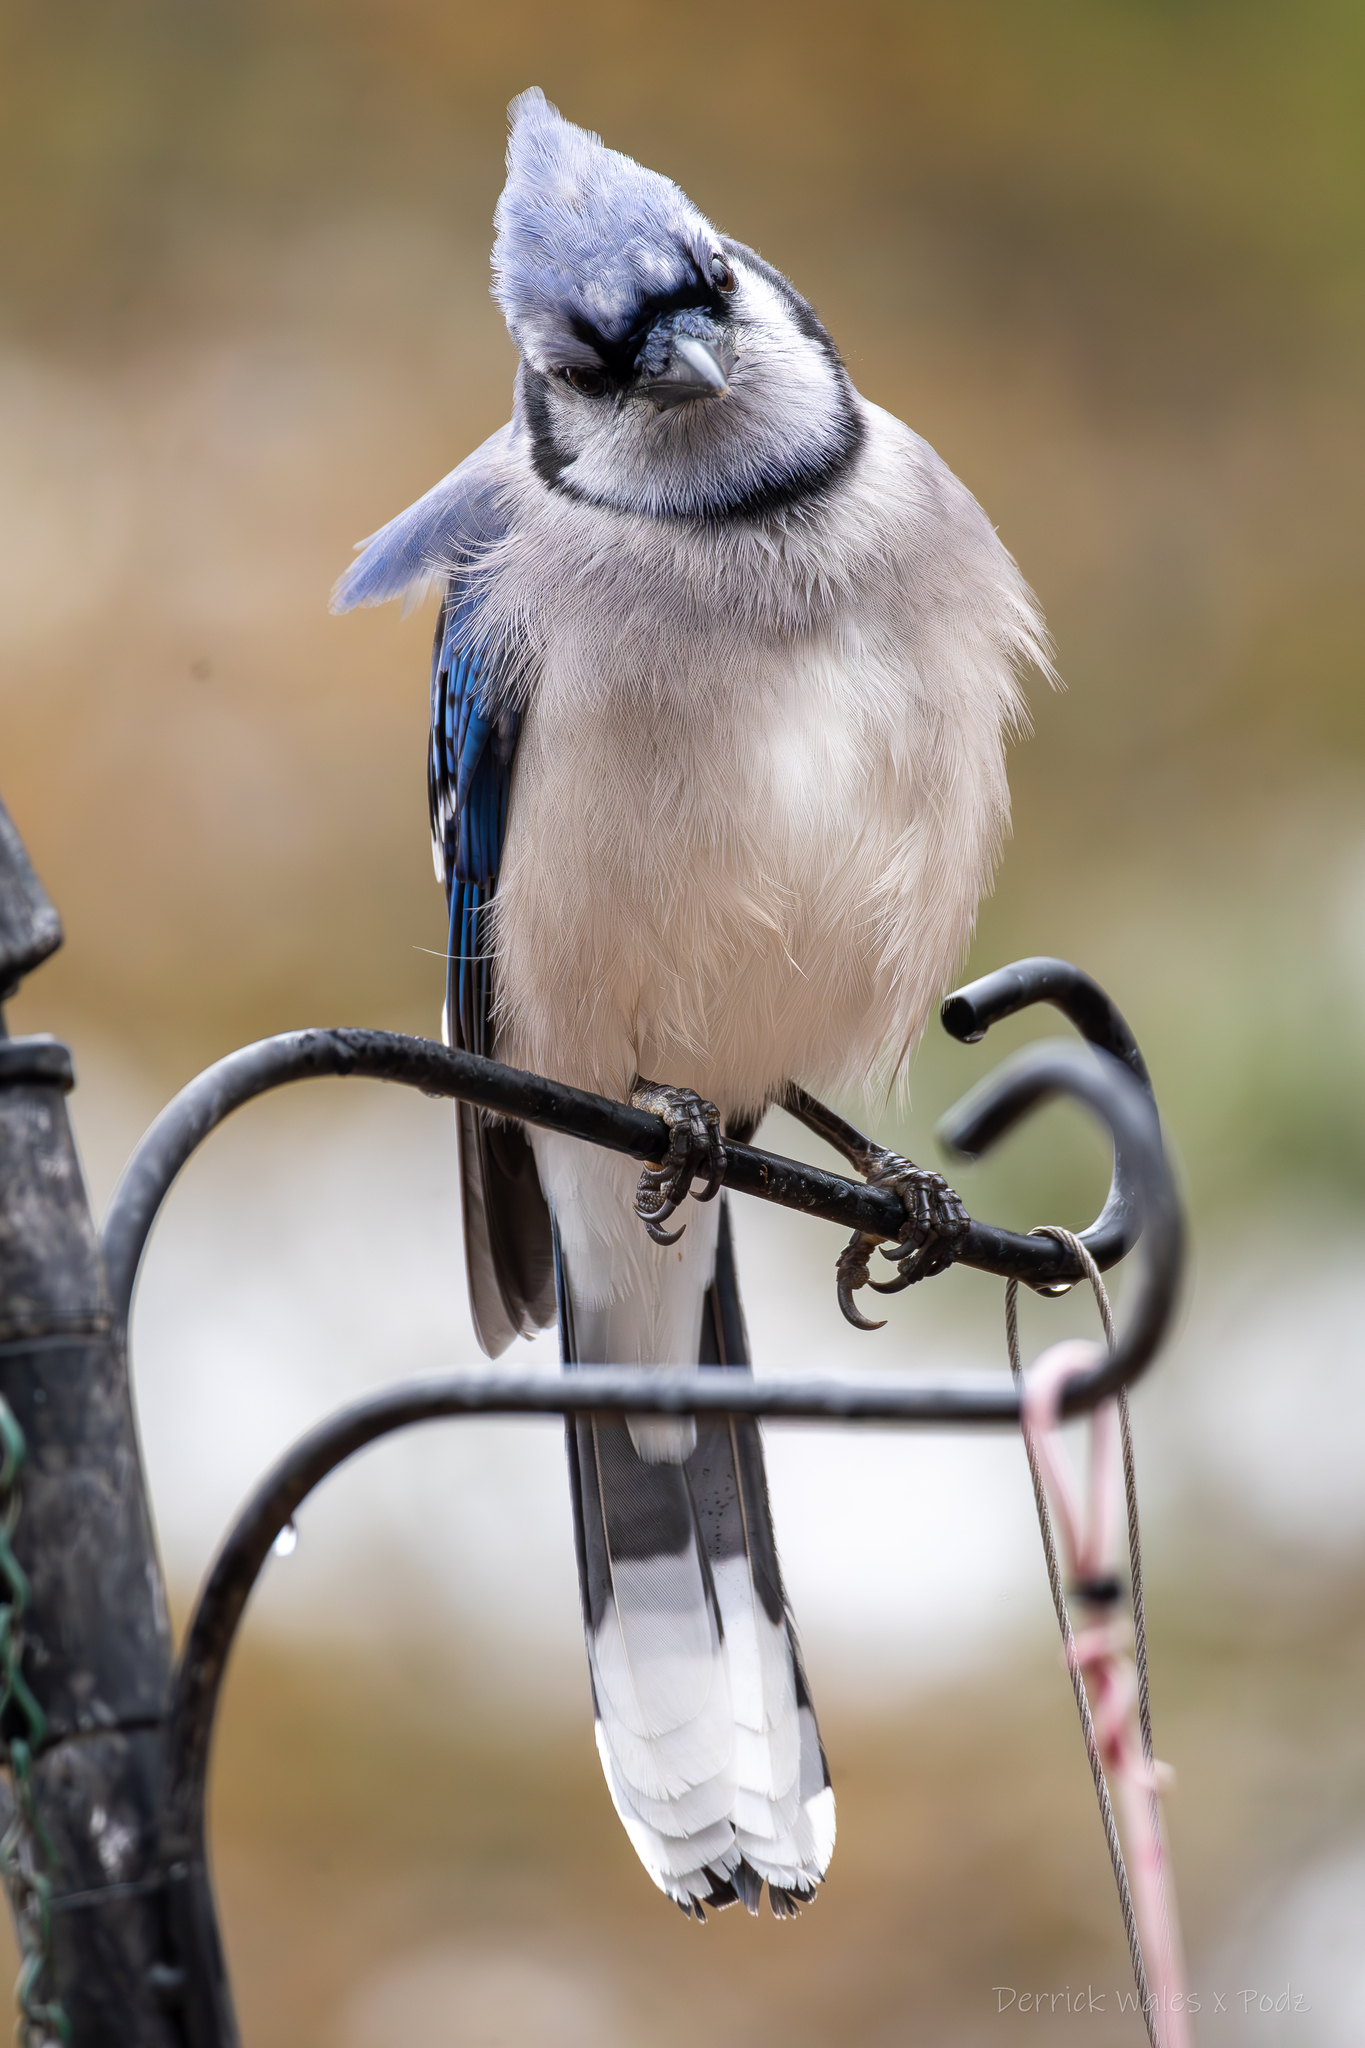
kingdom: Animalia
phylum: Chordata
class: Aves
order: Passeriformes
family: Corvidae
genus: Cyanocitta
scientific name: Cyanocitta cristata
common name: Blue jay
